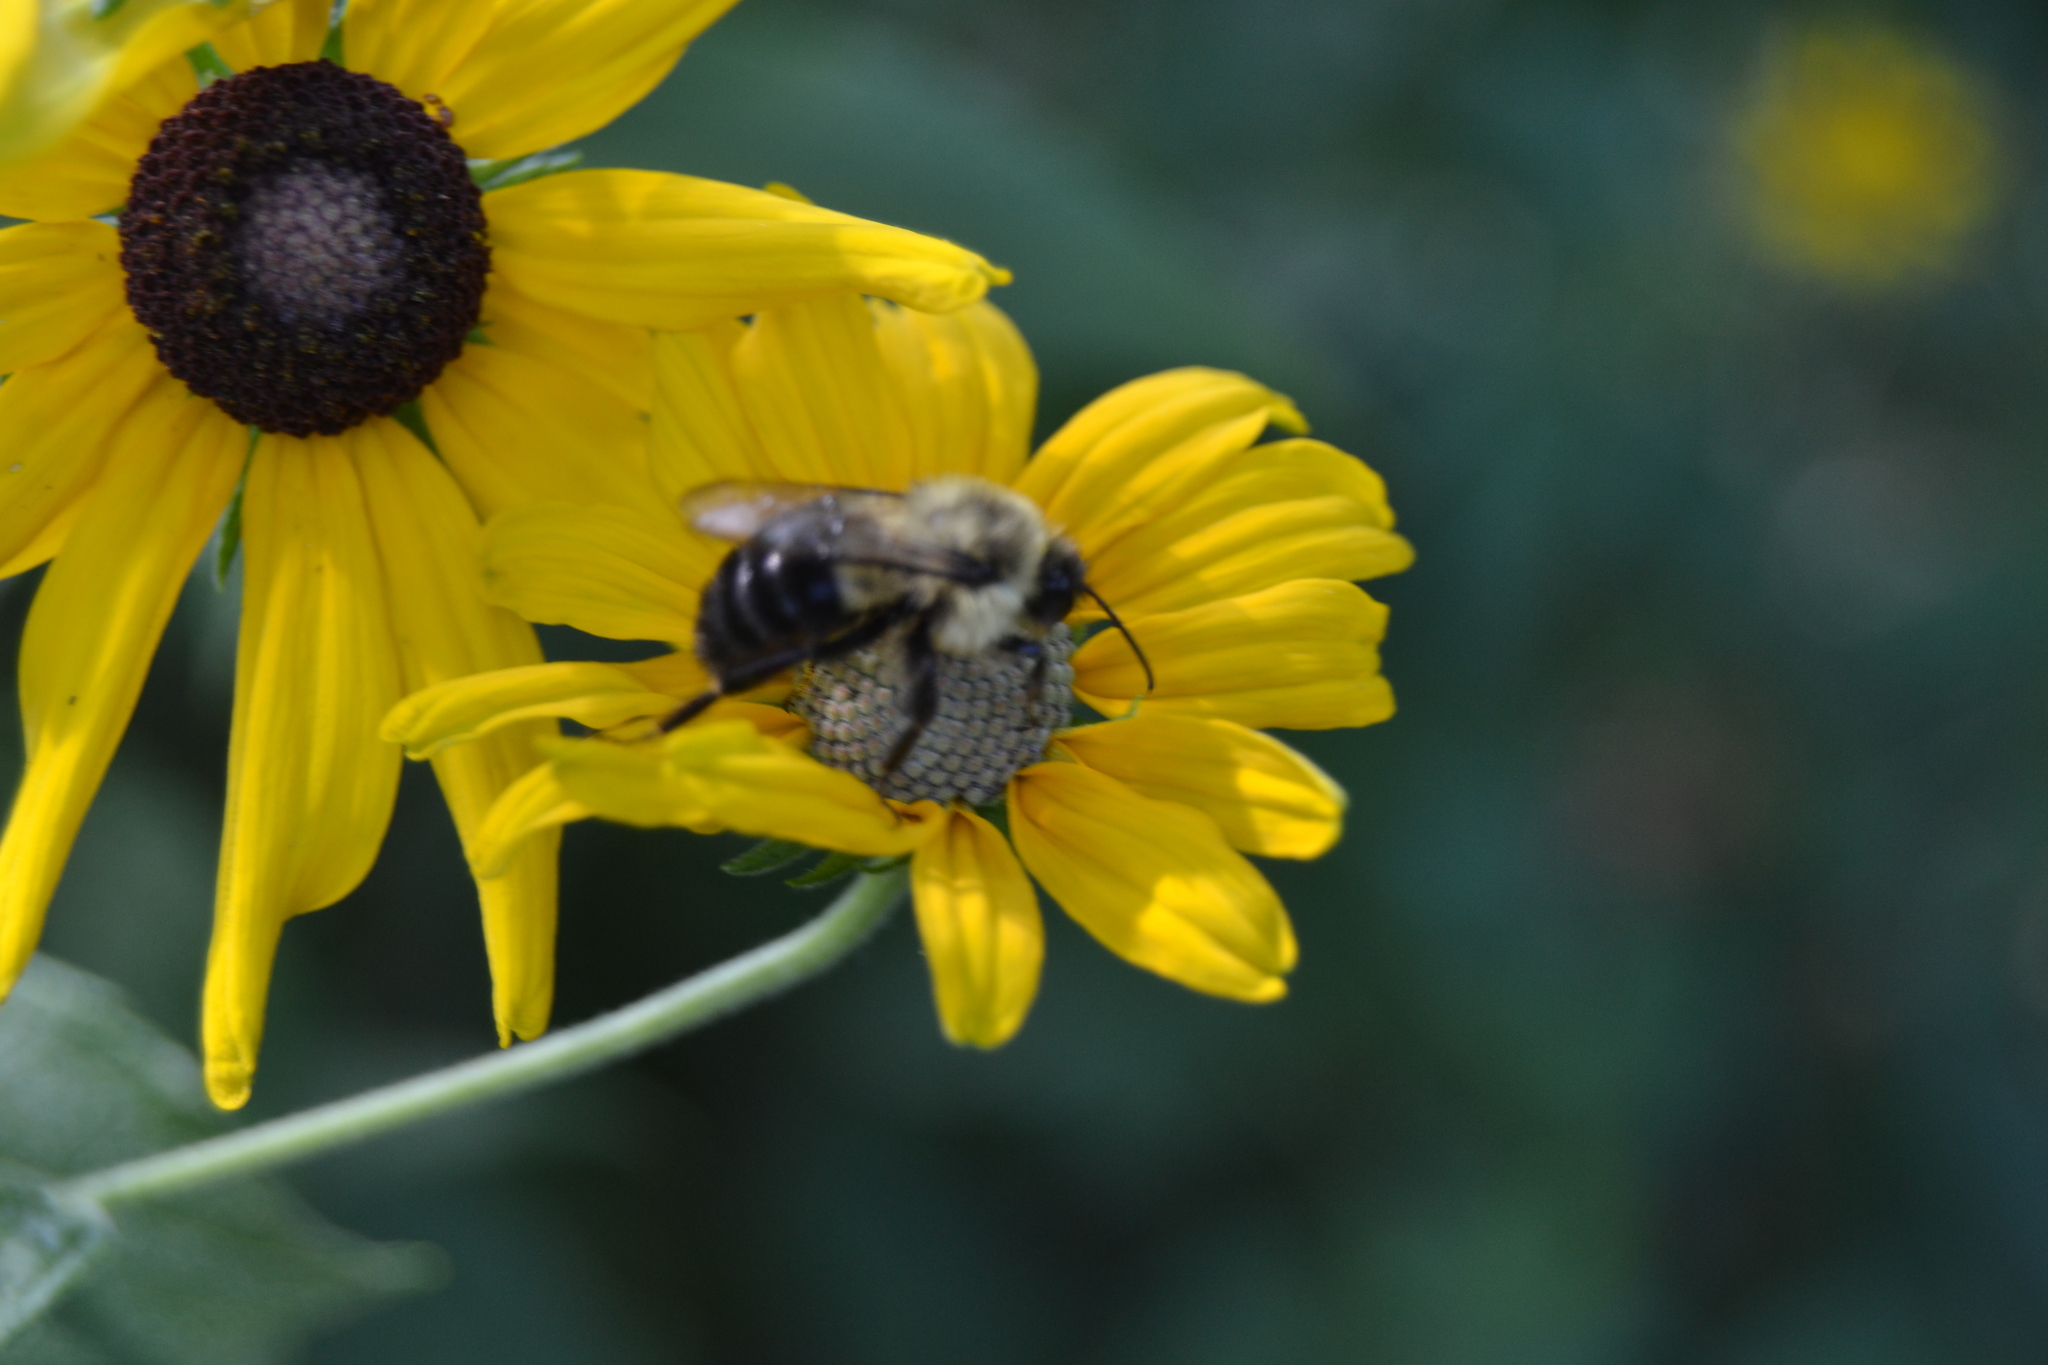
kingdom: Animalia
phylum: Arthropoda
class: Insecta
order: Hymenoptera
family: Apidae
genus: Bombus
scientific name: Bombus impatiens
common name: Common eastern bumble bee
